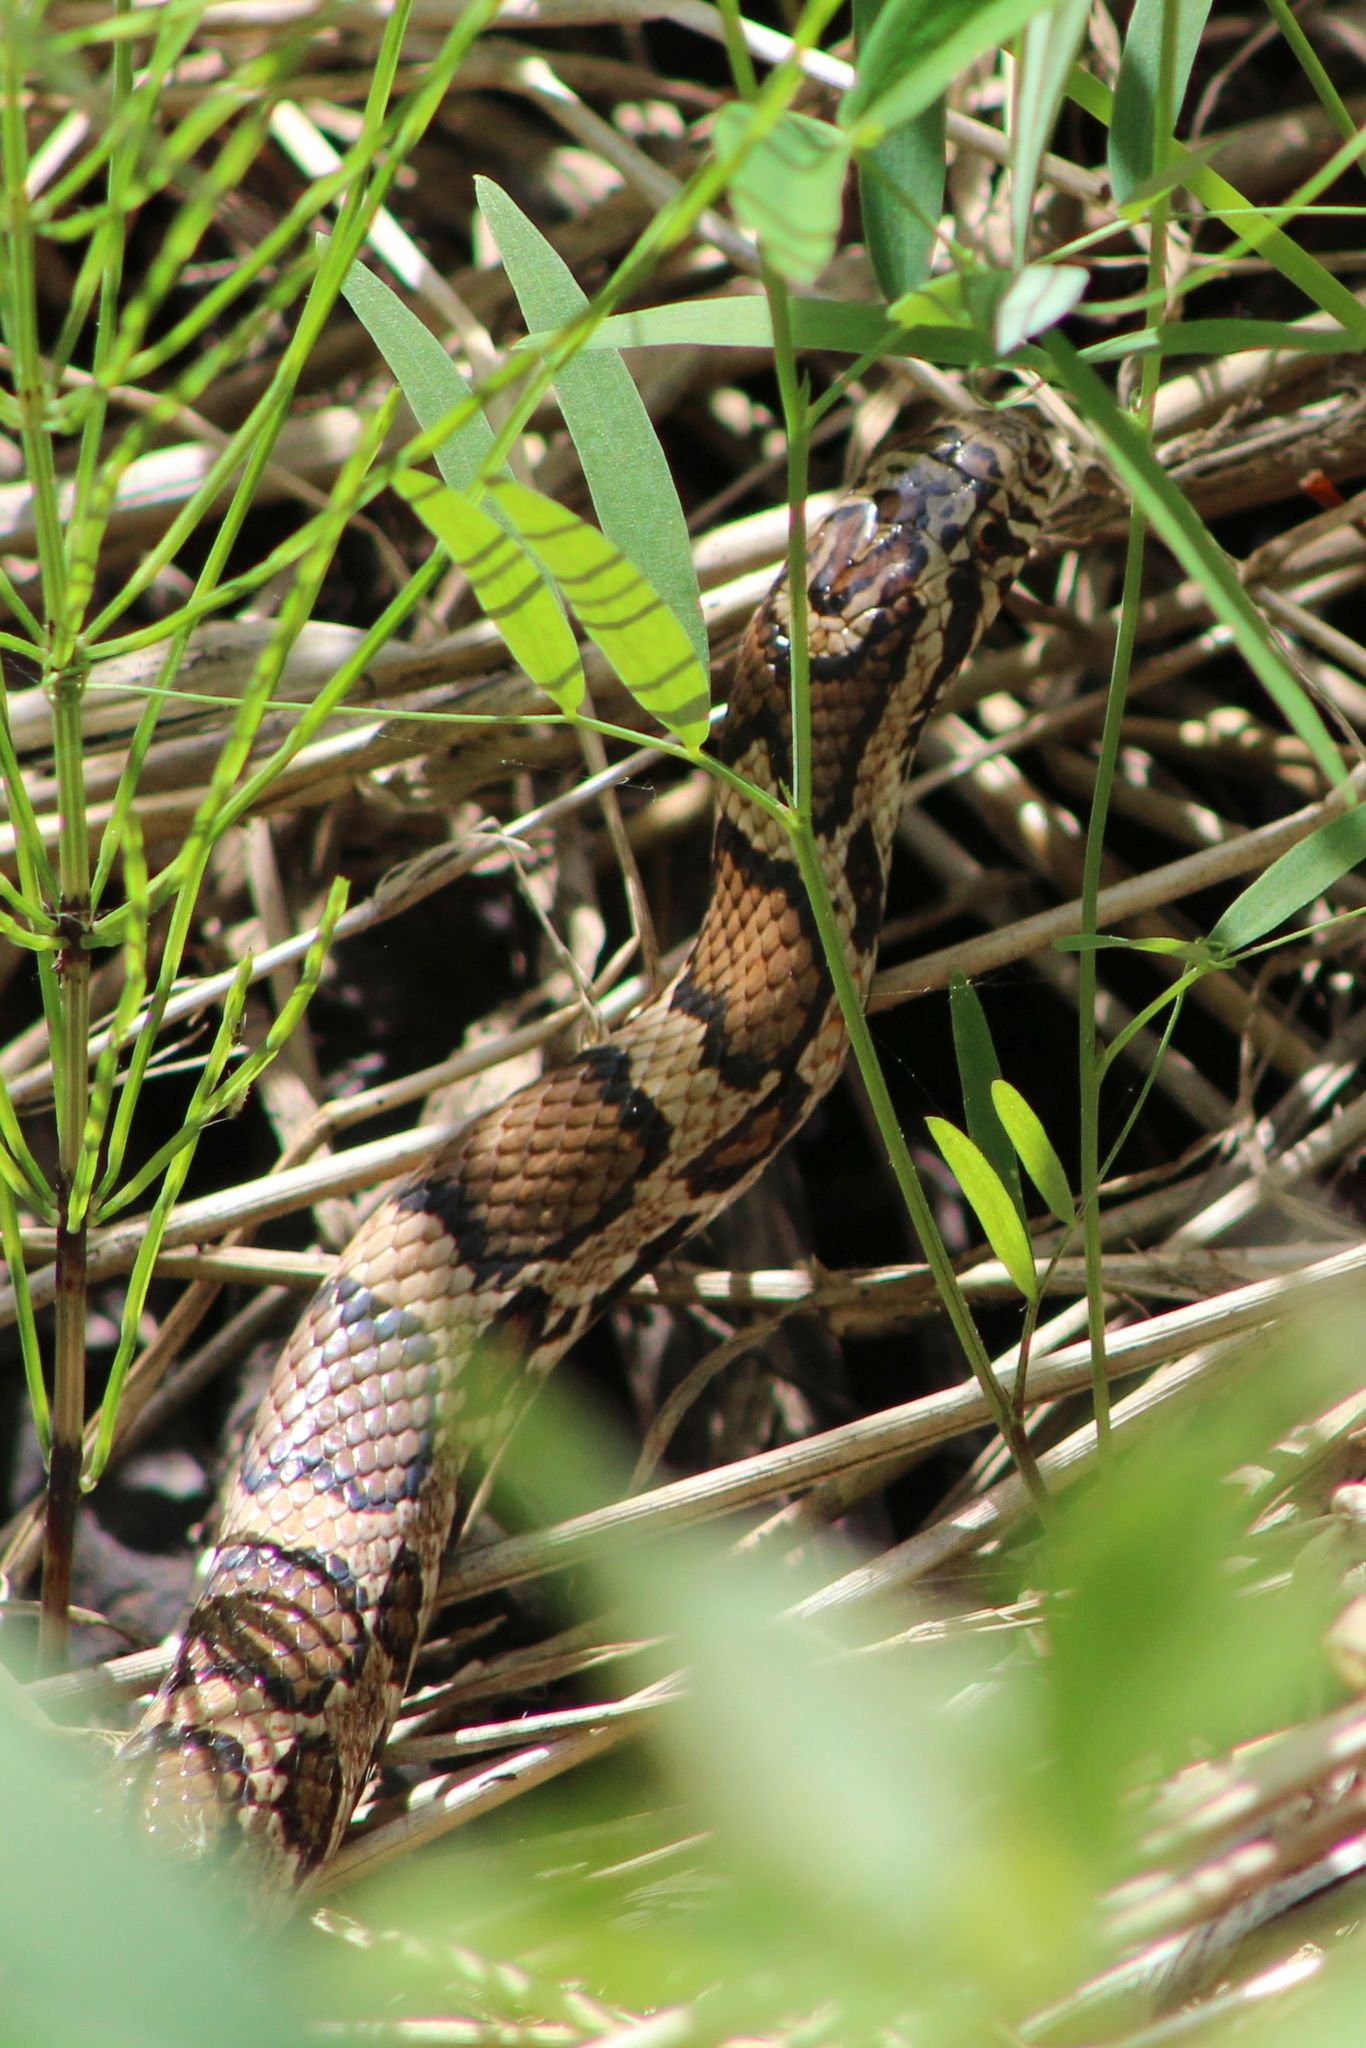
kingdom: Animalia
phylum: Chordata
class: Squamata
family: Colubridae
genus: Lampropeltis
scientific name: Lampropeltis triangulum
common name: Eastern milksnake
